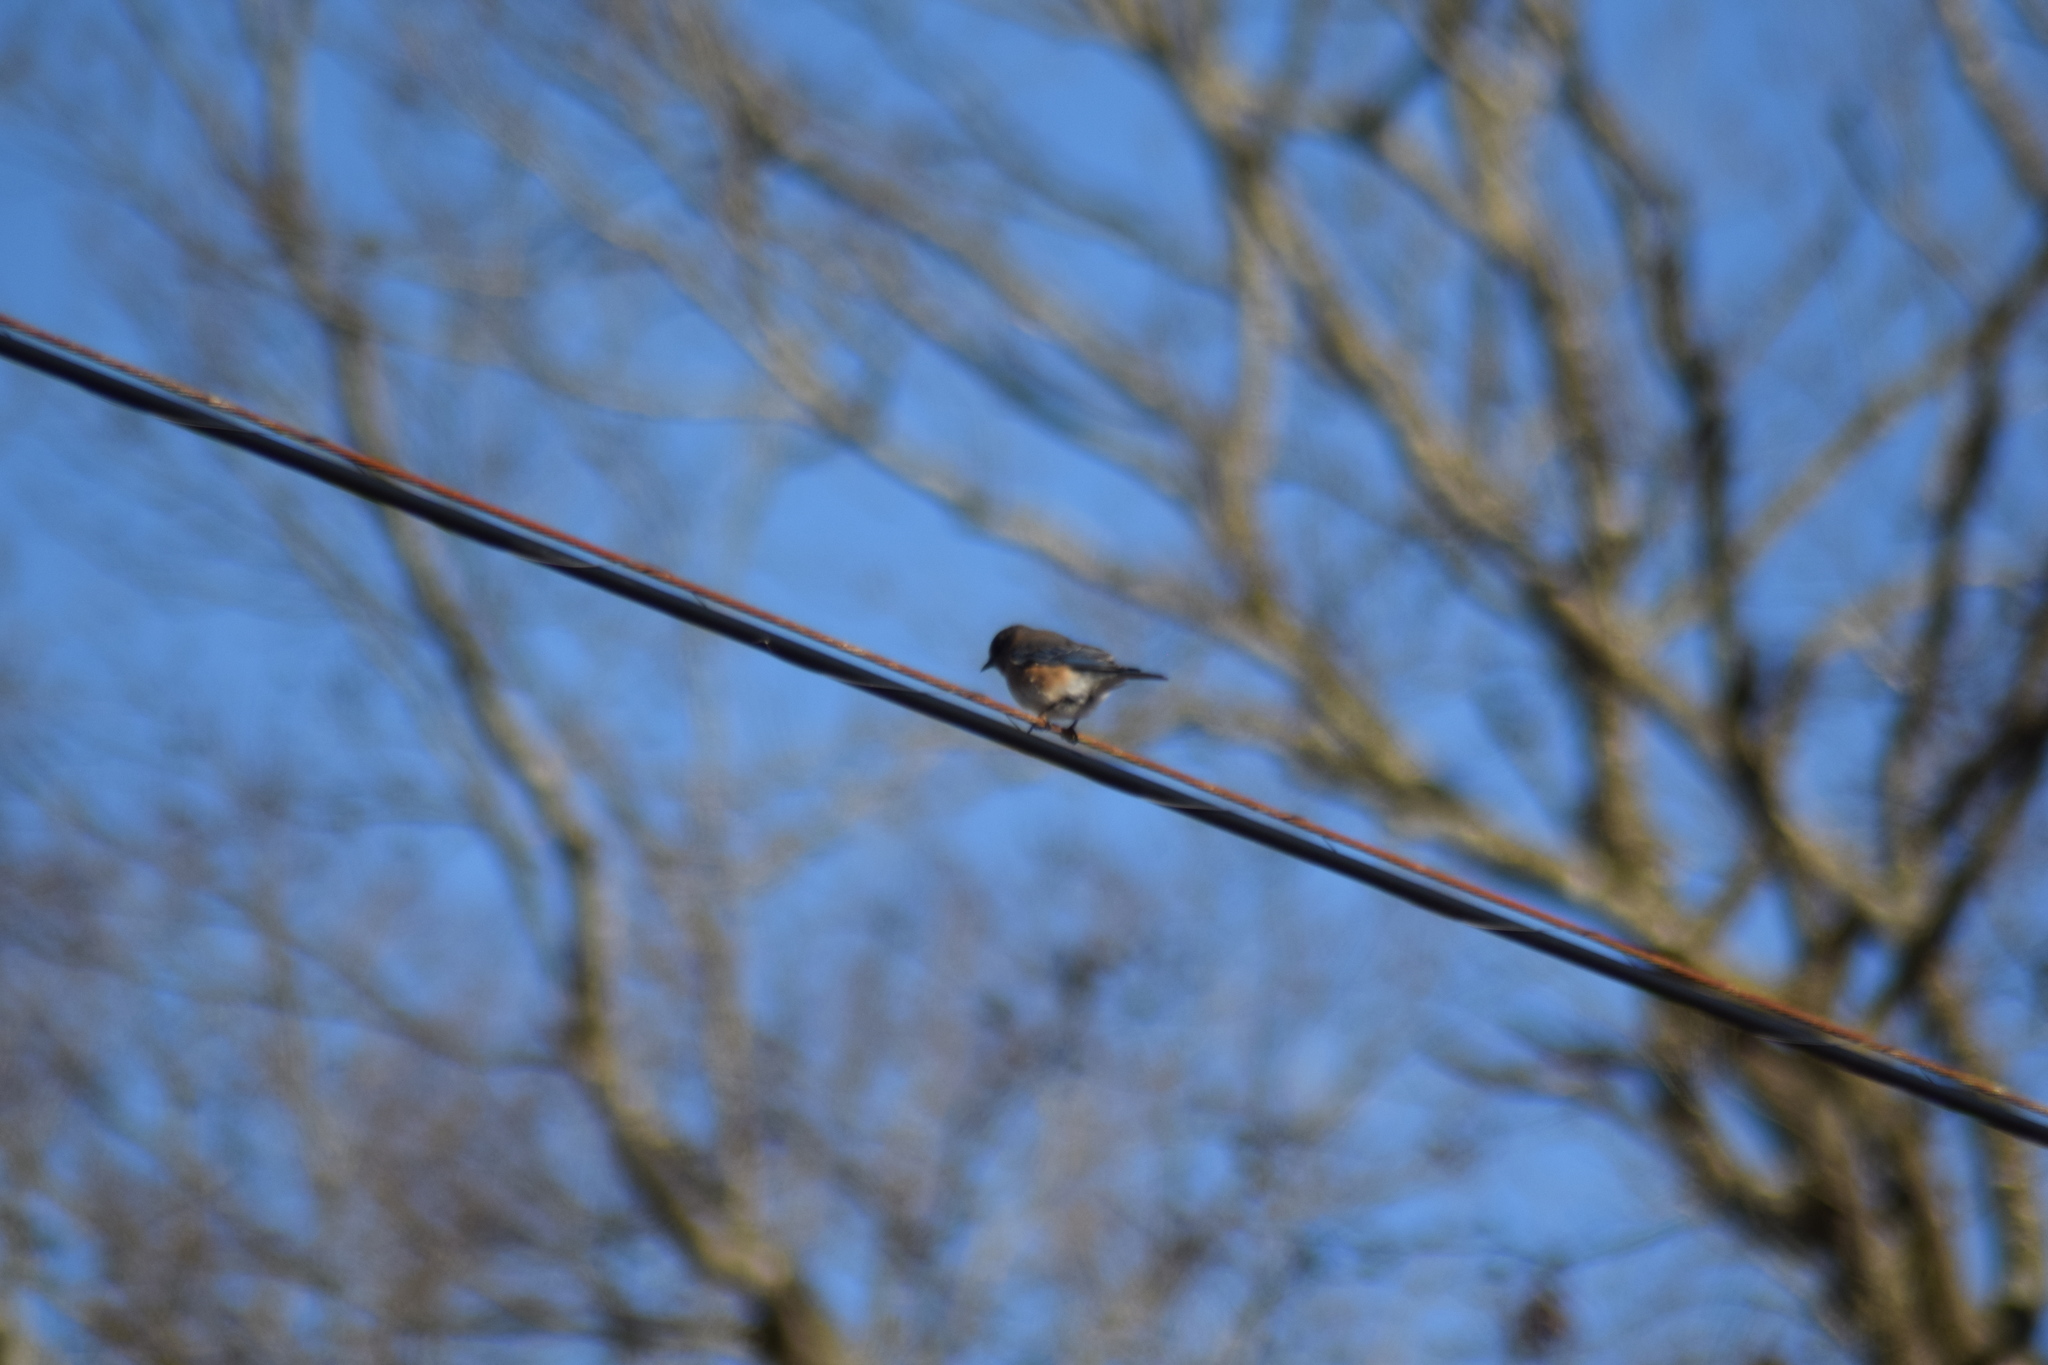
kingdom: Animalia
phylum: Chordata
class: Aves
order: Passeriformes
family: Turdidae
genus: Sialia
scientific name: Sialia sialis
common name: Eastern bluebird
